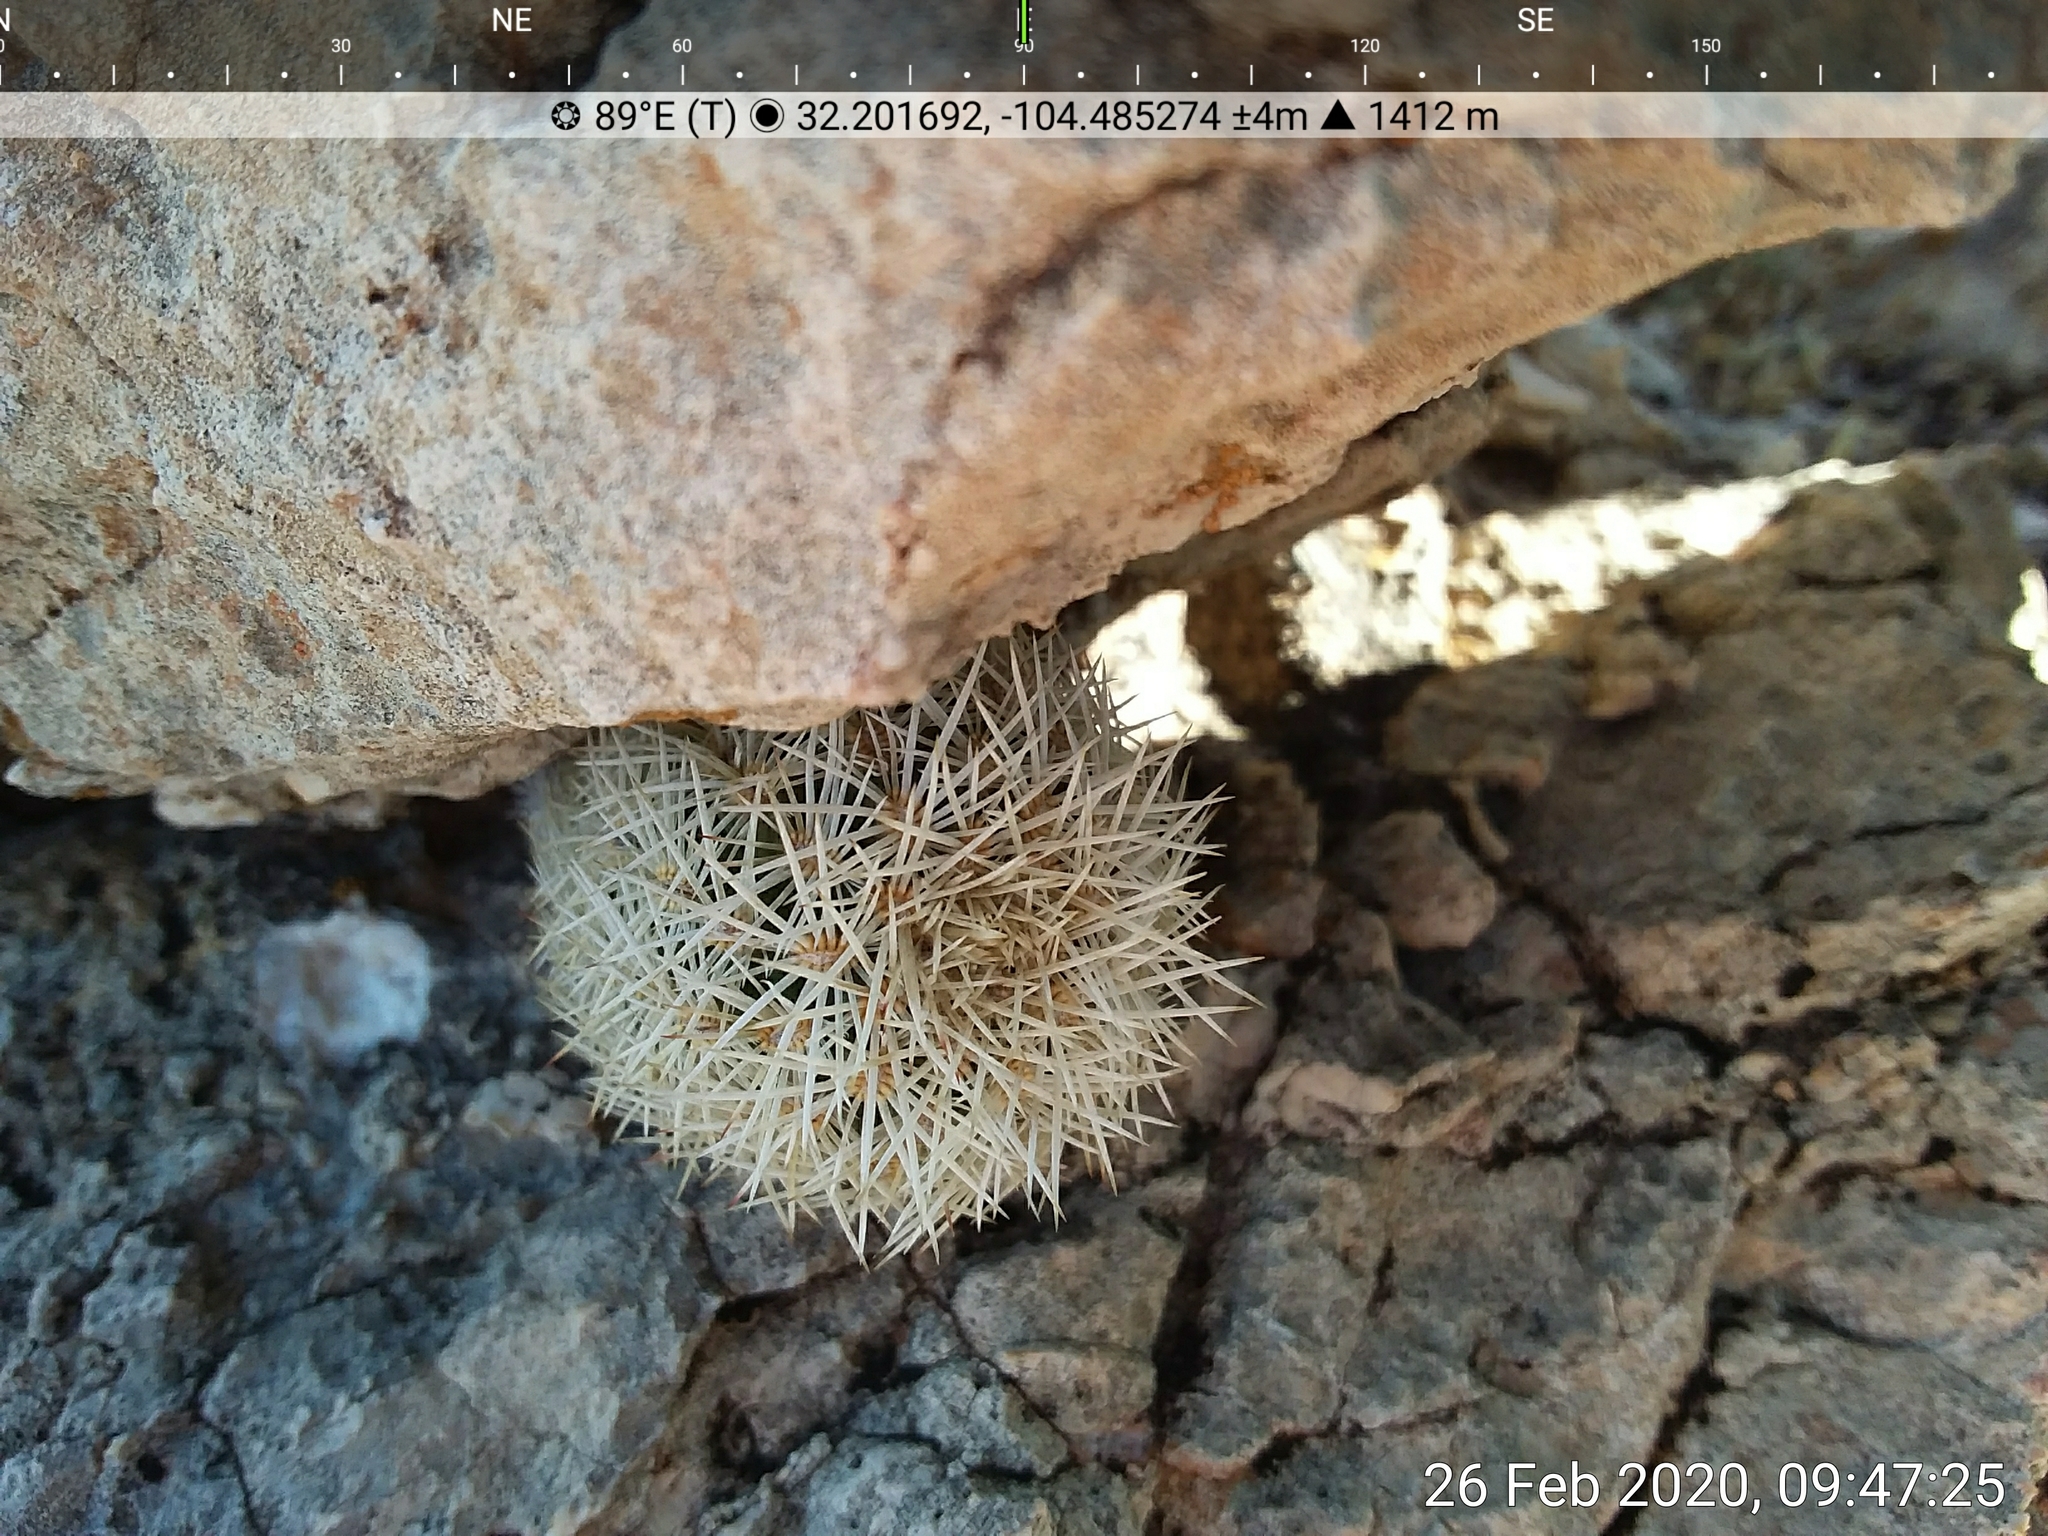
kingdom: Plantae
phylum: Tracheophyta
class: Magnoliopsida
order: Caryophyllales
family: Cactaceae
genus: Echinocereus
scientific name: Echinocereus viridiflorus
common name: Nylon hedgehog cactus
